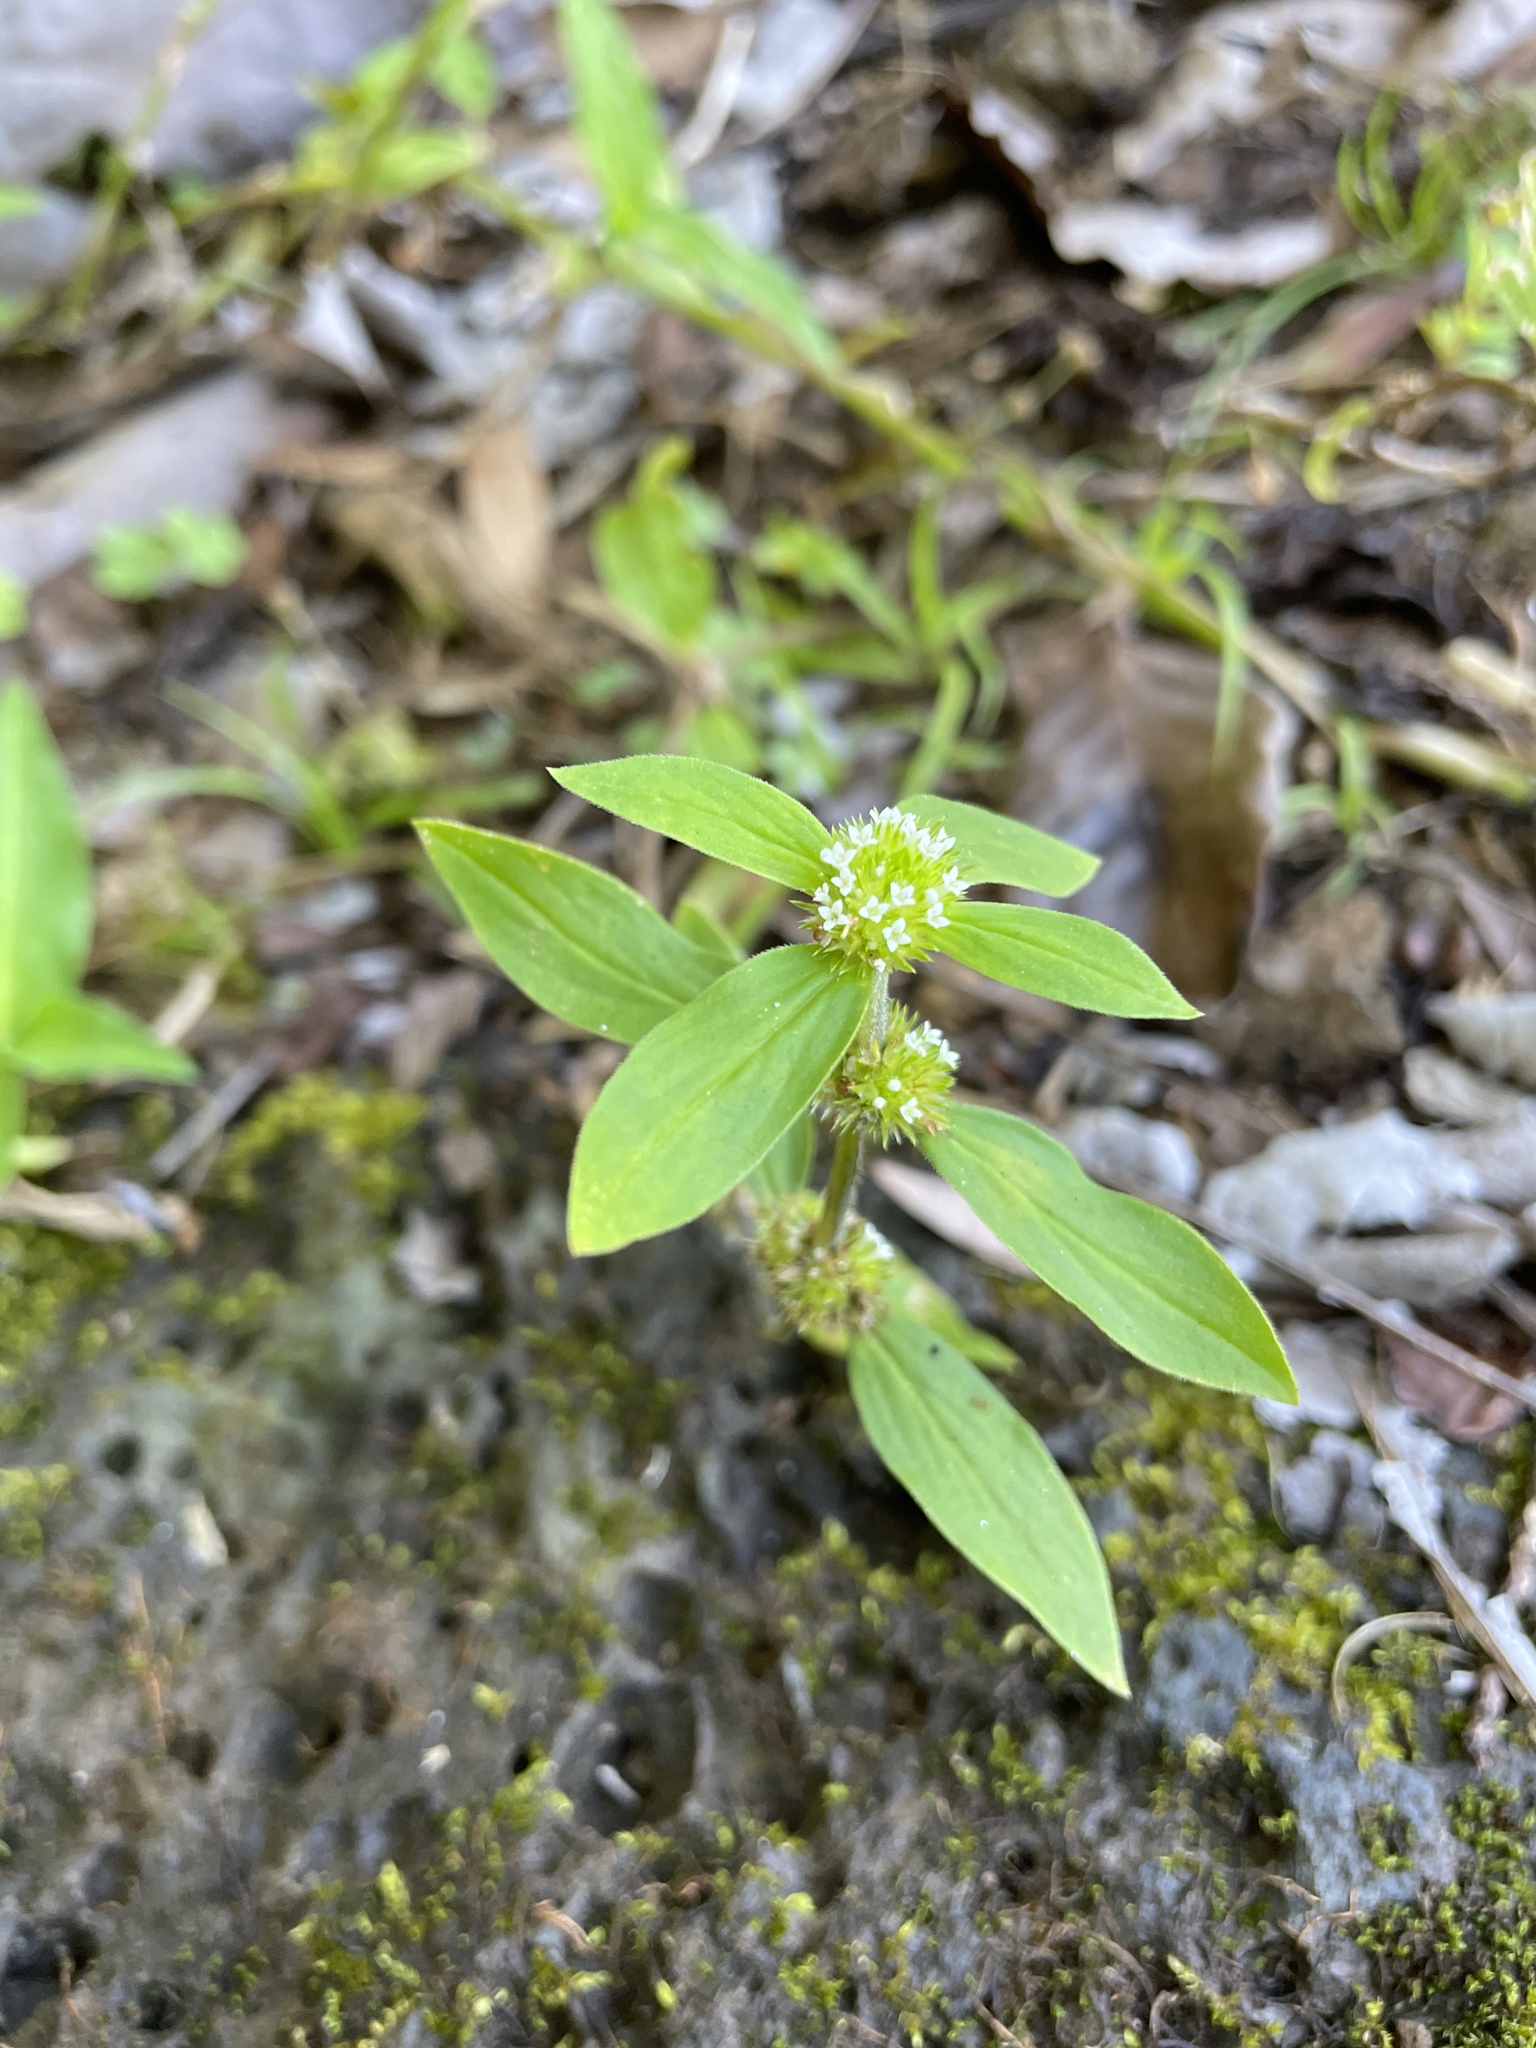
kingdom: Plantae
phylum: Tracheophyta
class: Magnoliopsida
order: Gentianales
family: Rubiaceae
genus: Mitracarpus
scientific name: Mitracarpus hirtus
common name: Tropical girdlepod
